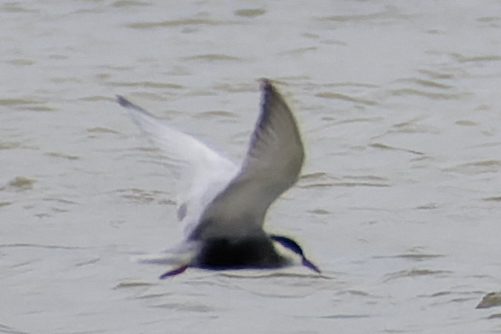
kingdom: Animalia
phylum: Chordata
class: Aves
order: Charadriiformes
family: Laridae
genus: Chlidonias
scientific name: Chlidonias hybrida
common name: Whiskered tern
